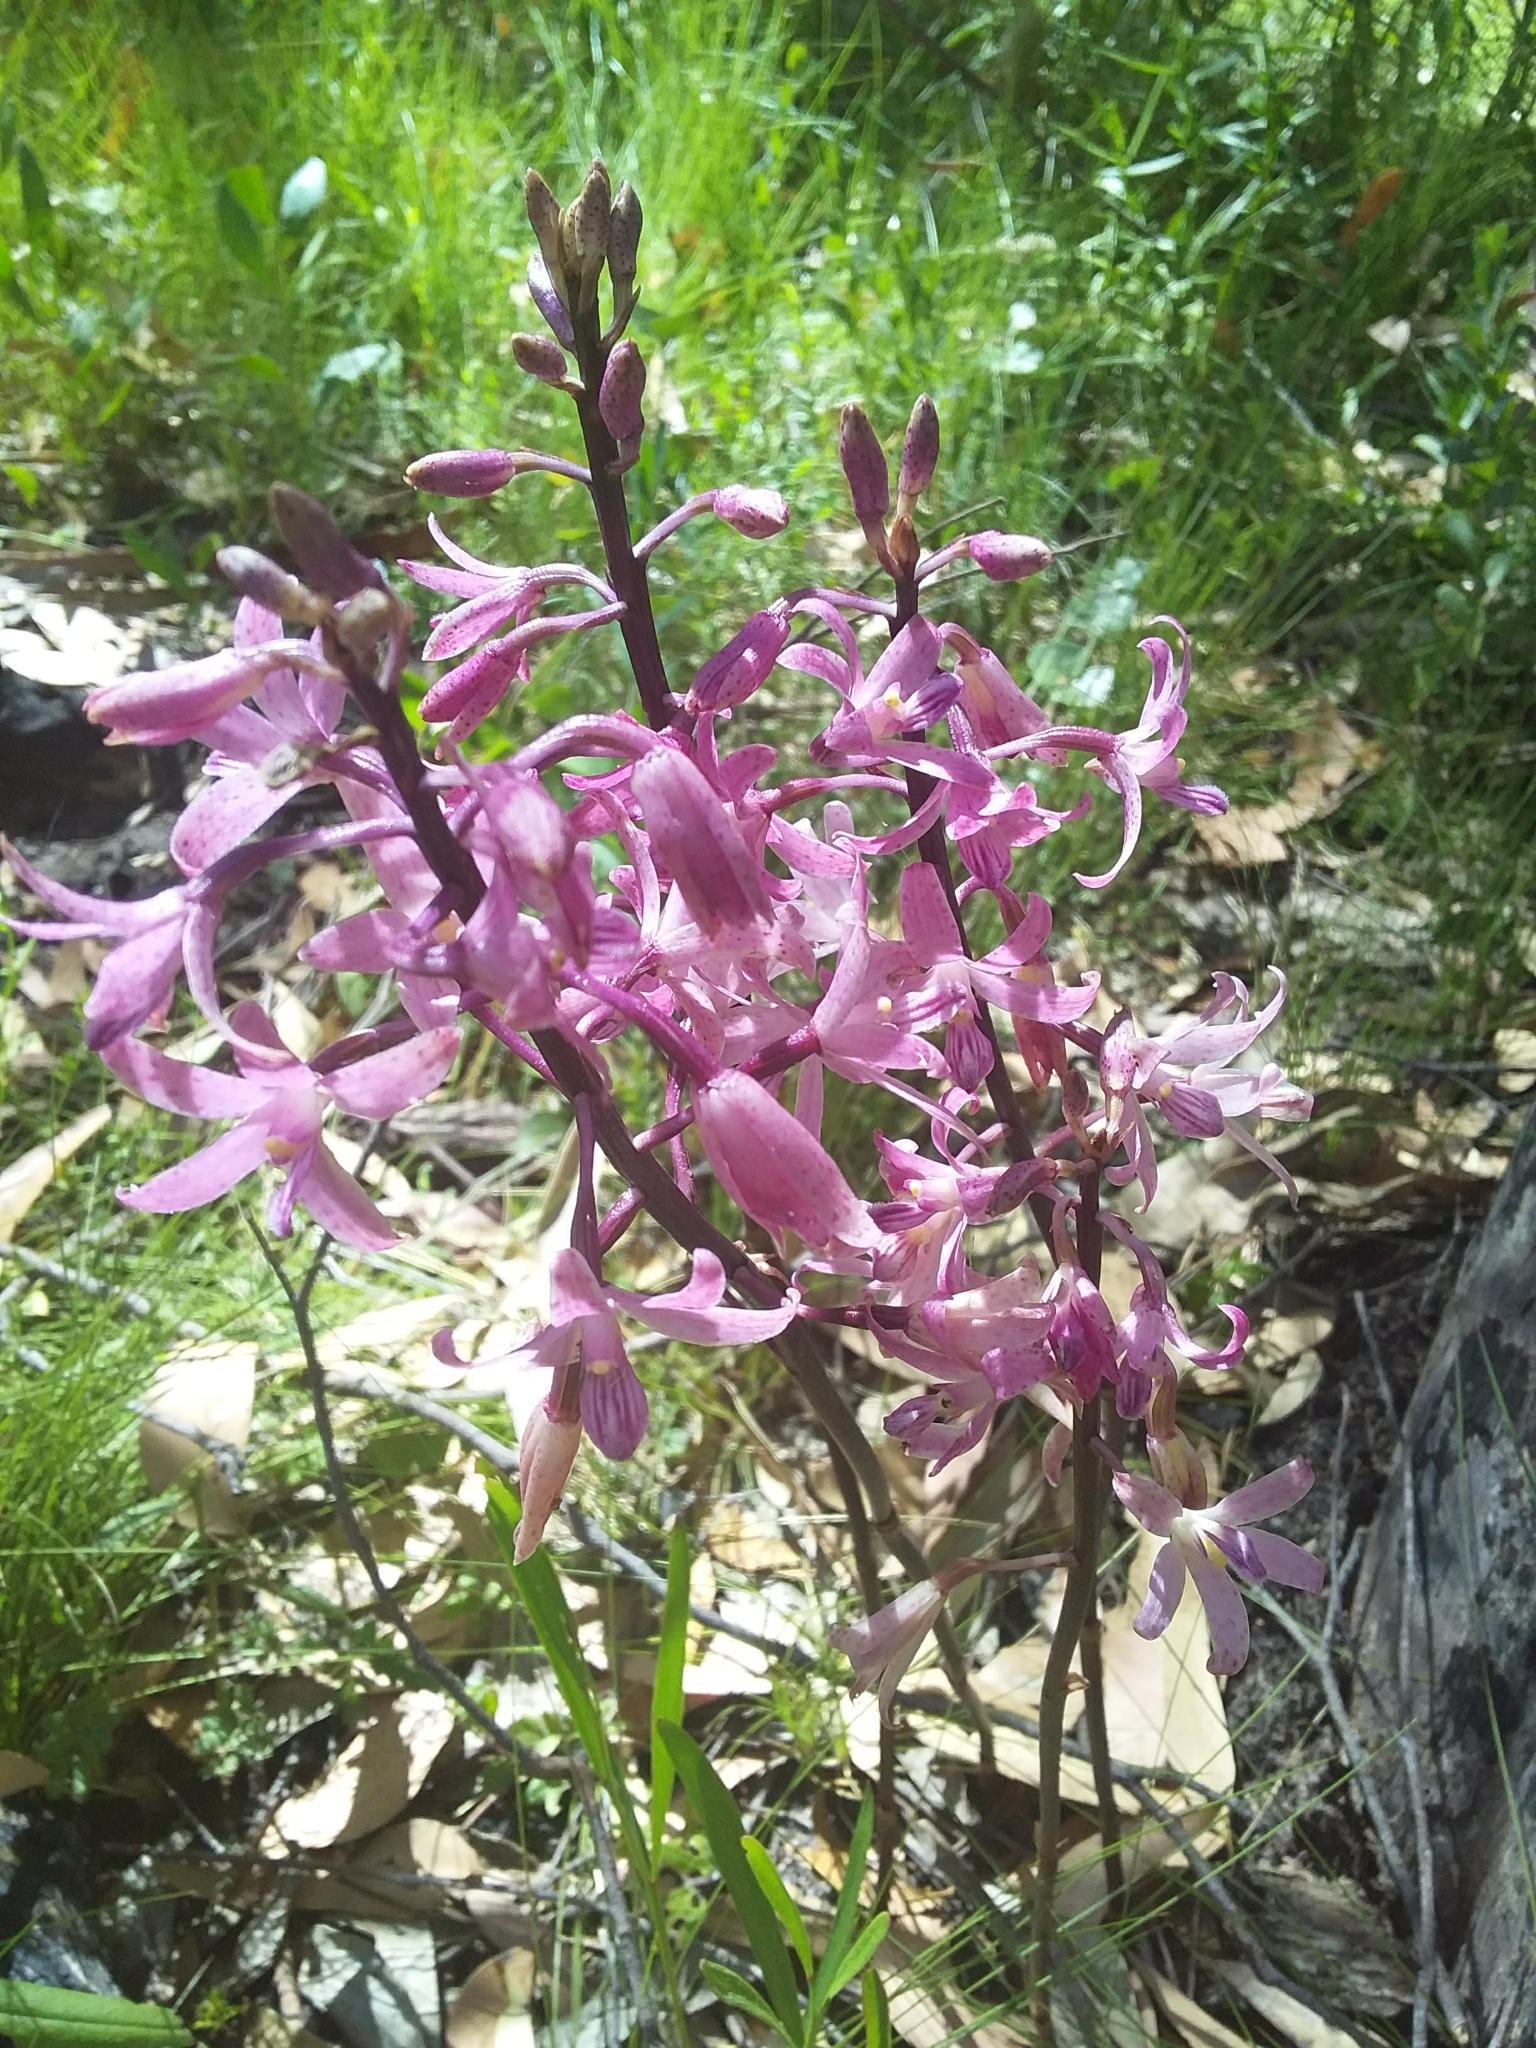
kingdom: Plantae
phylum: Tracheophyta
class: Liliopsida
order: Asparagales
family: Orchidaceae
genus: Dipodium
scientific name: Dipodium roseum
